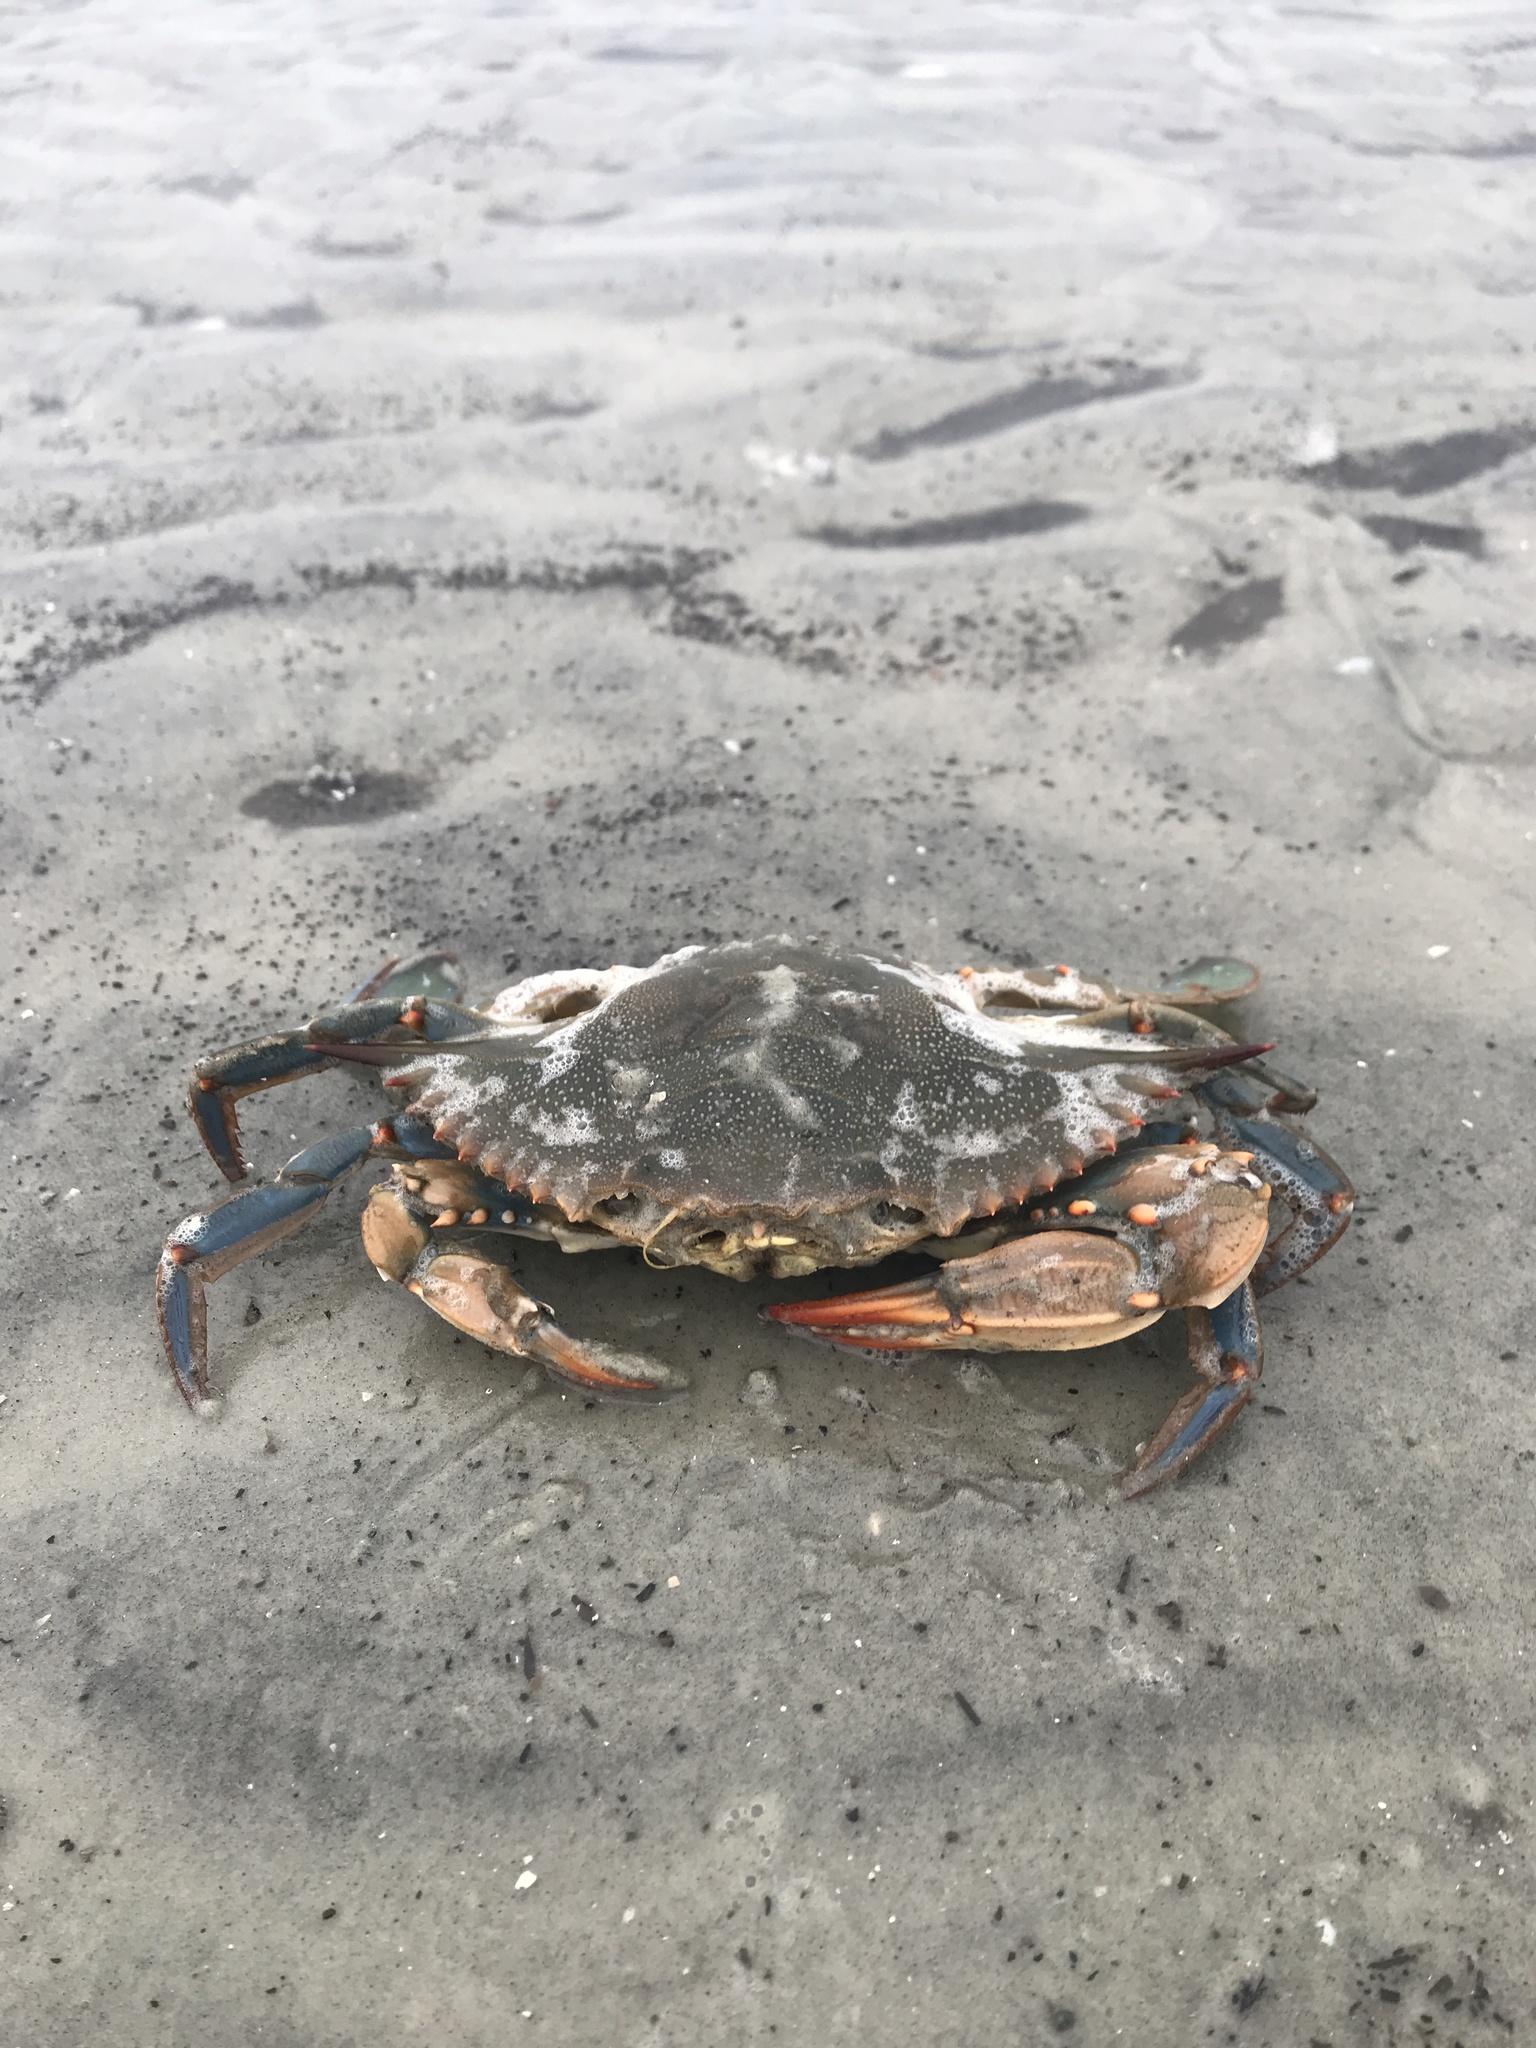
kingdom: Animalia
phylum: Arthropoda
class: Malacostraca
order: Decapoda
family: Portunidae
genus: Callinectes
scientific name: Callinectes sapidus
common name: Blue crab
